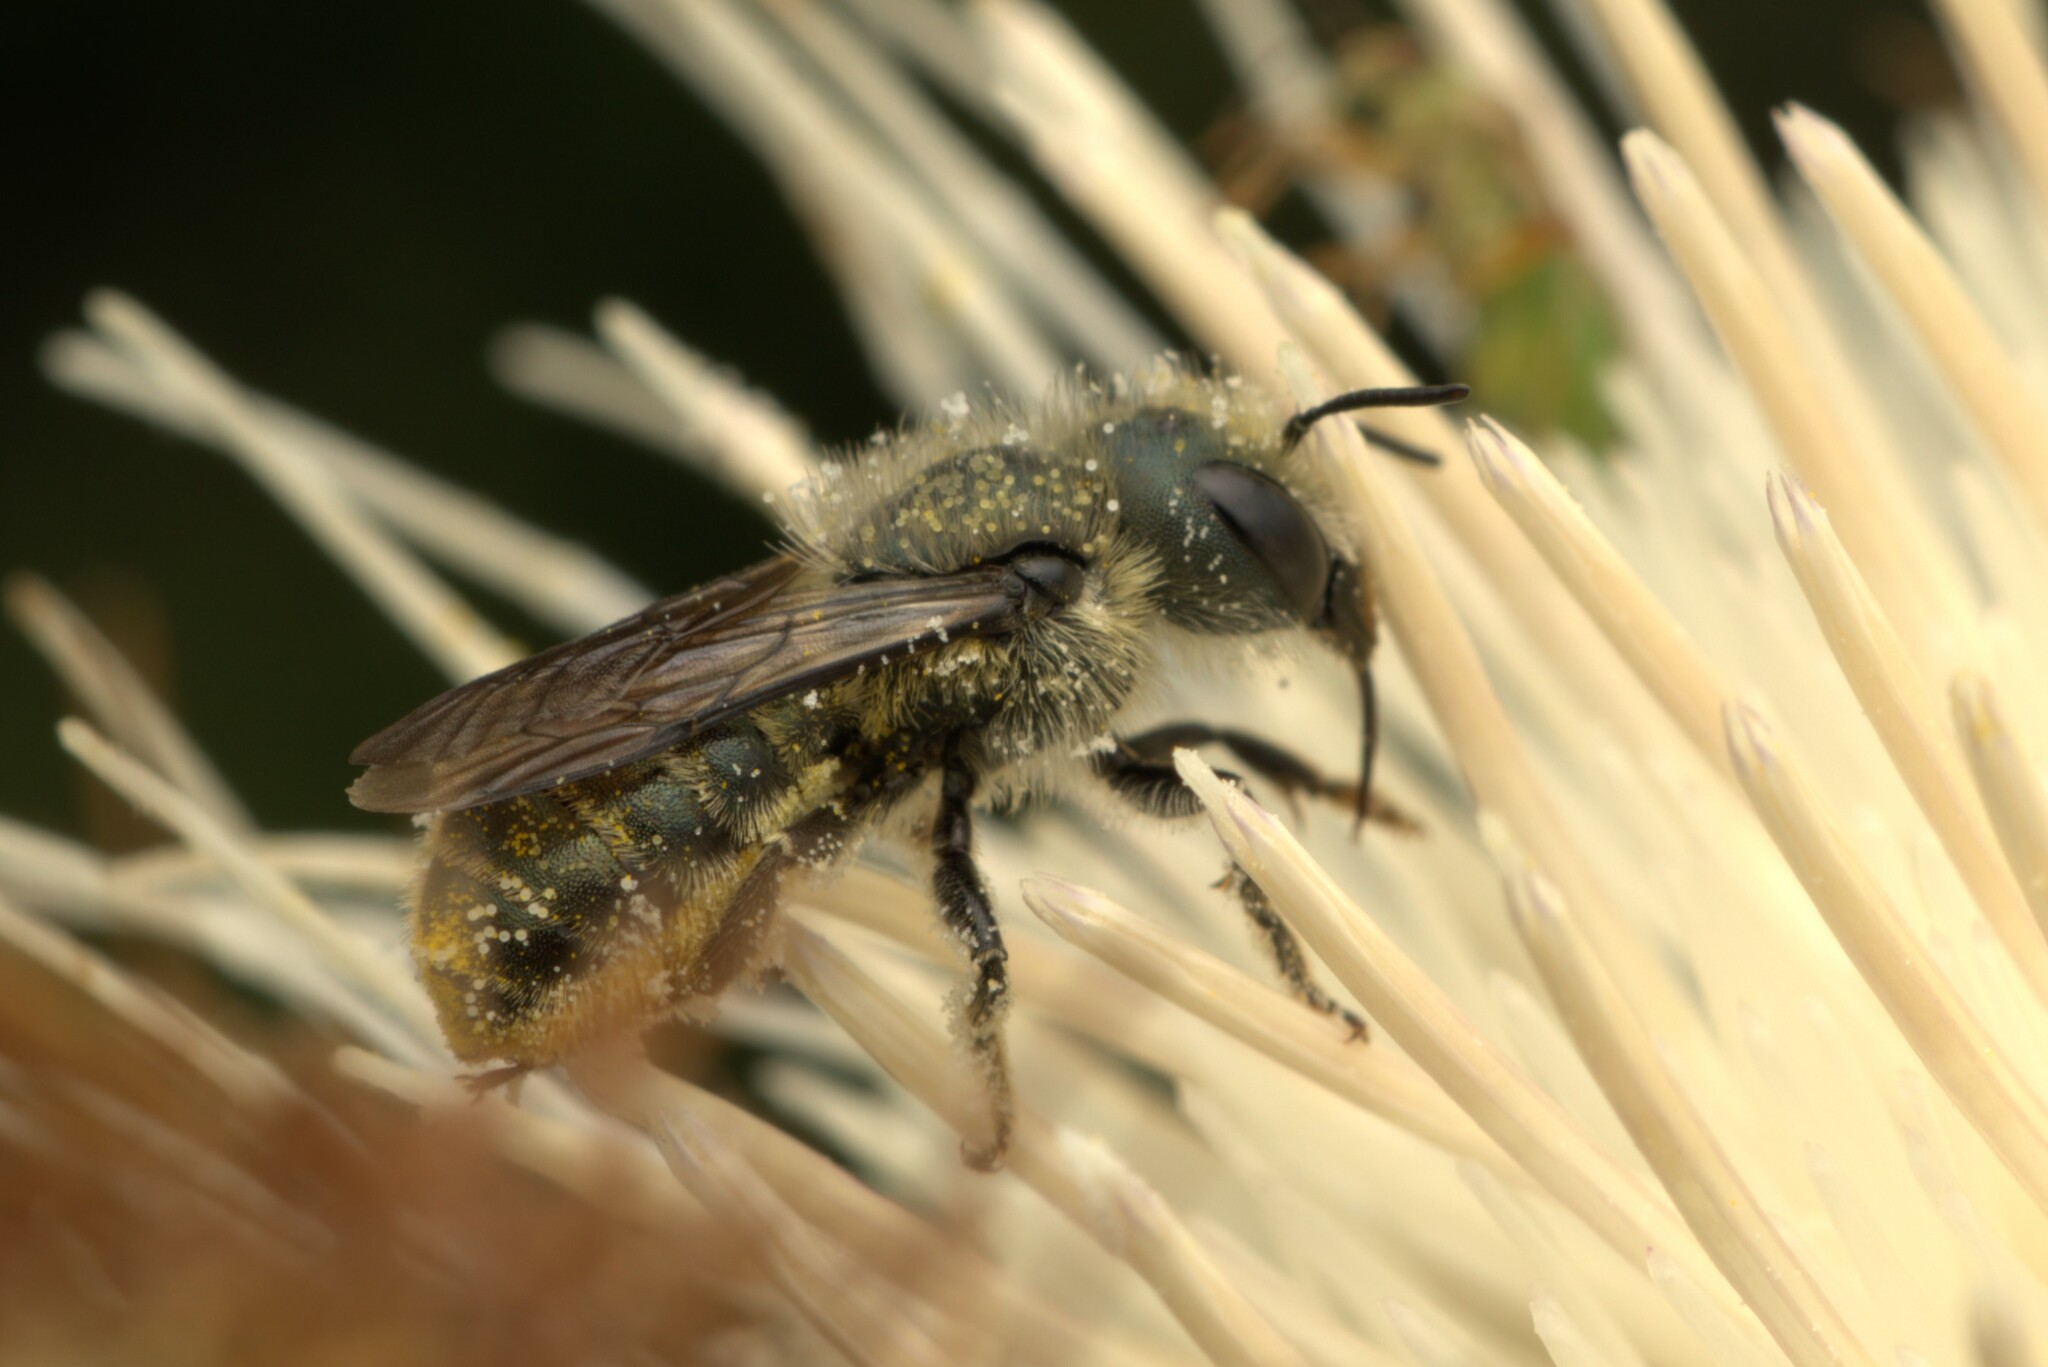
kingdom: Animalia
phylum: Arthropoda
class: Insecta
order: Hymenoptera
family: Megachilidae
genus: Osmia
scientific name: Osmia coloradensis
